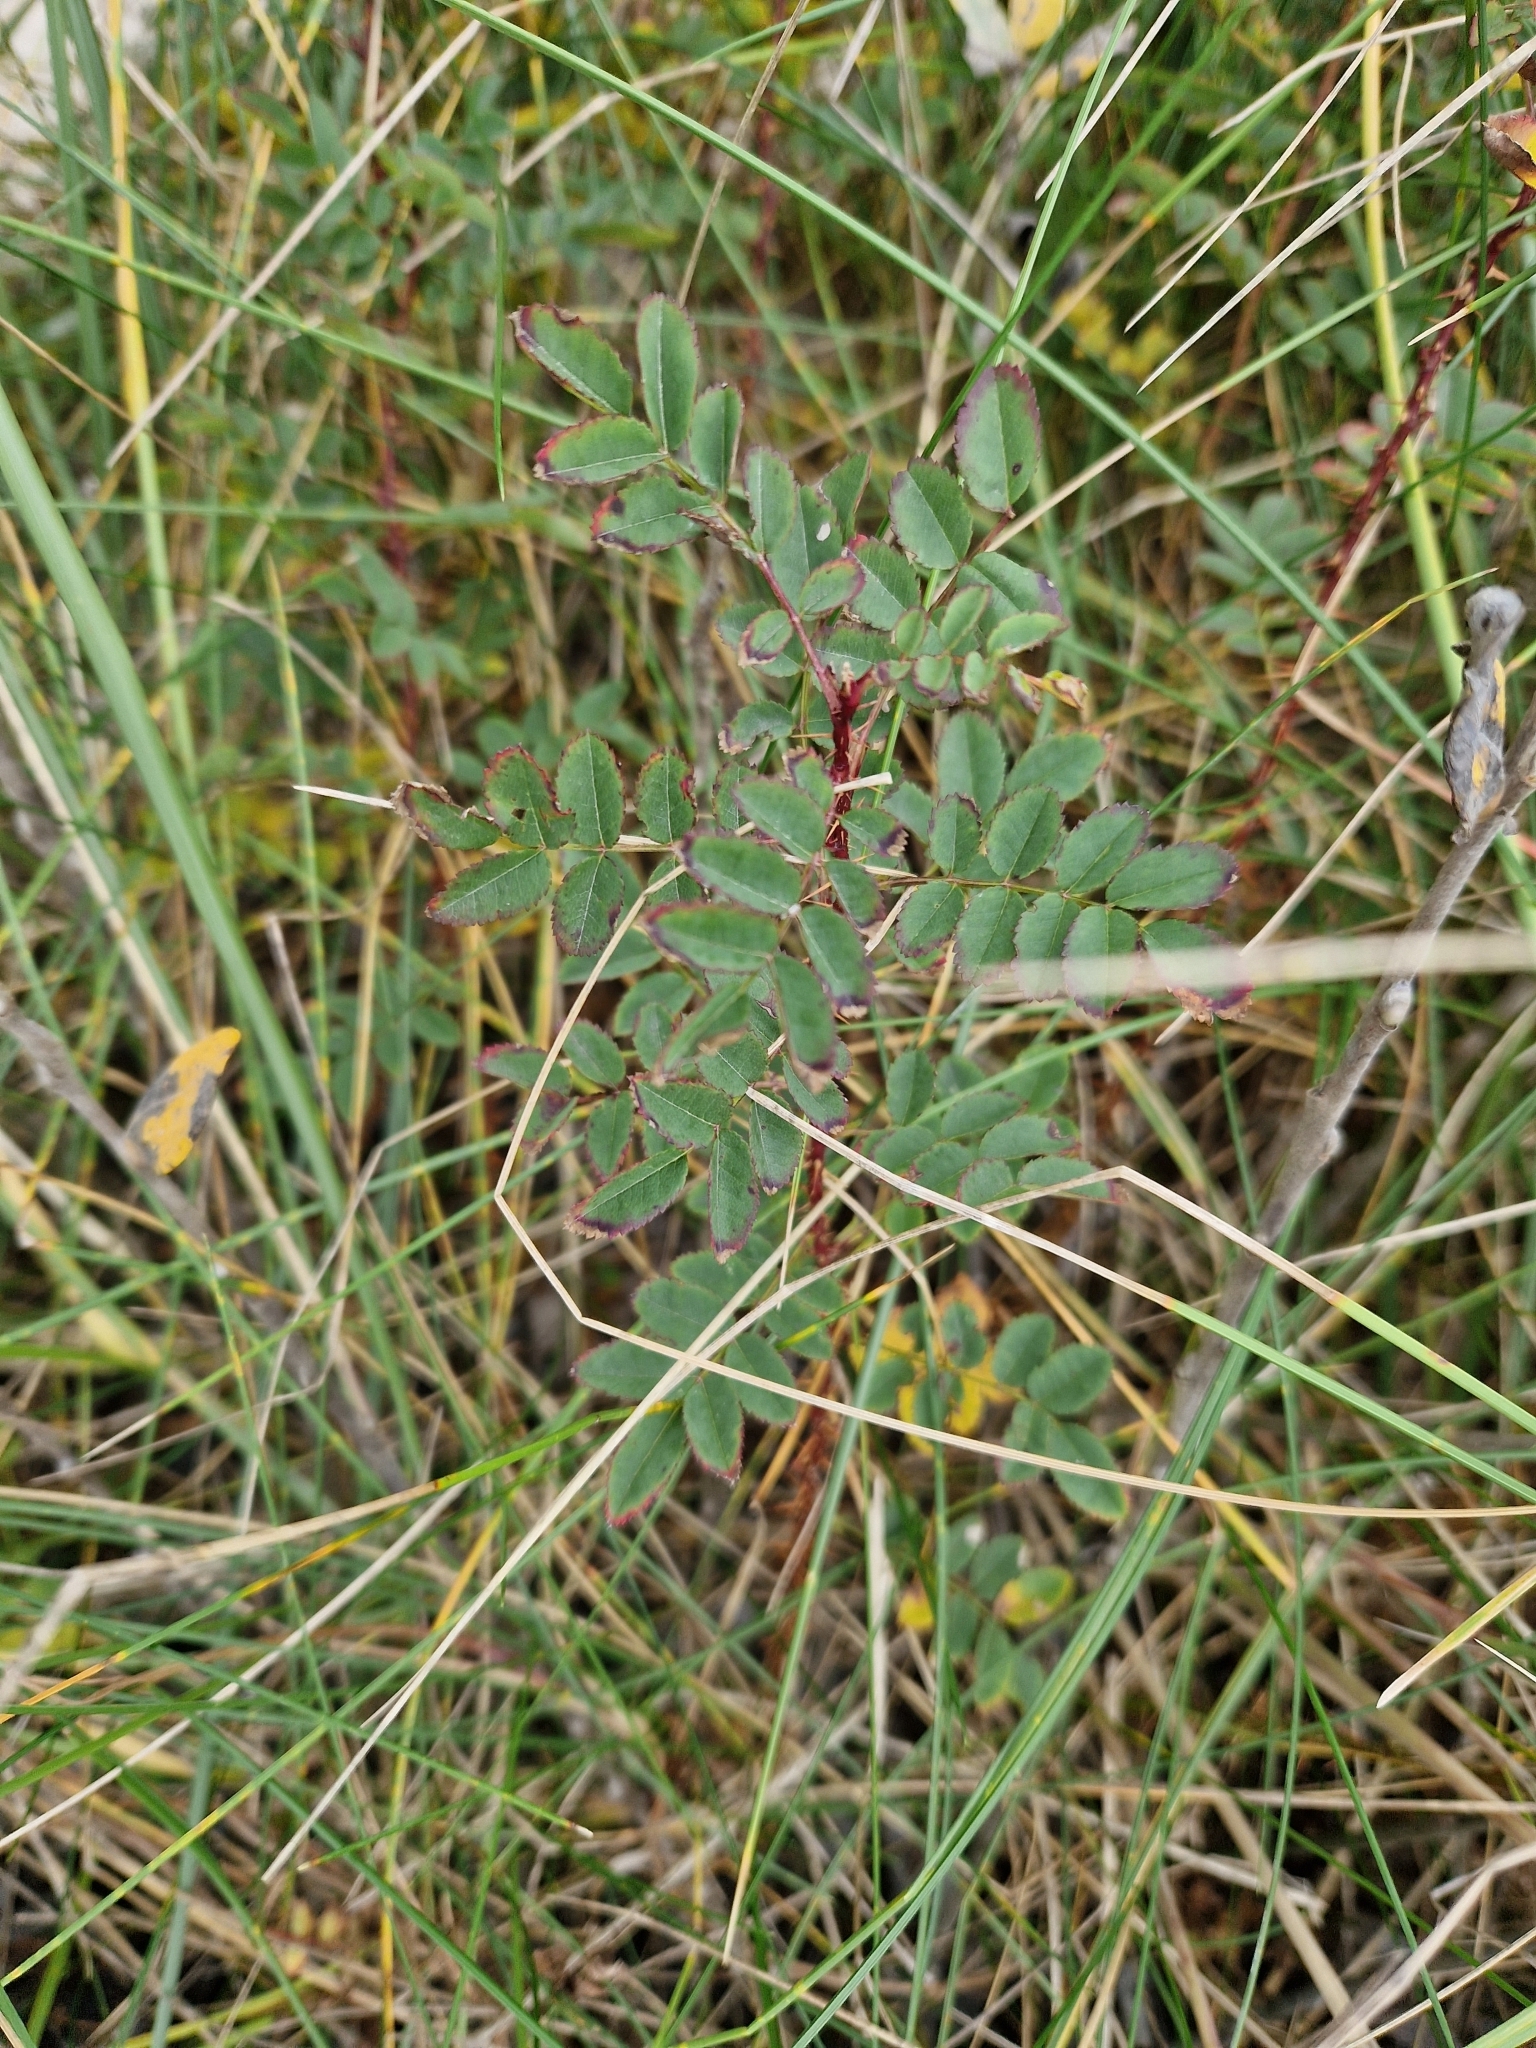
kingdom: Plantae
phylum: Tracheophyta
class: Magnoliopsida
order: Rosales
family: Rosaceae
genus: Rosa
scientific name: Rosa spinosissima
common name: Burnet rose
